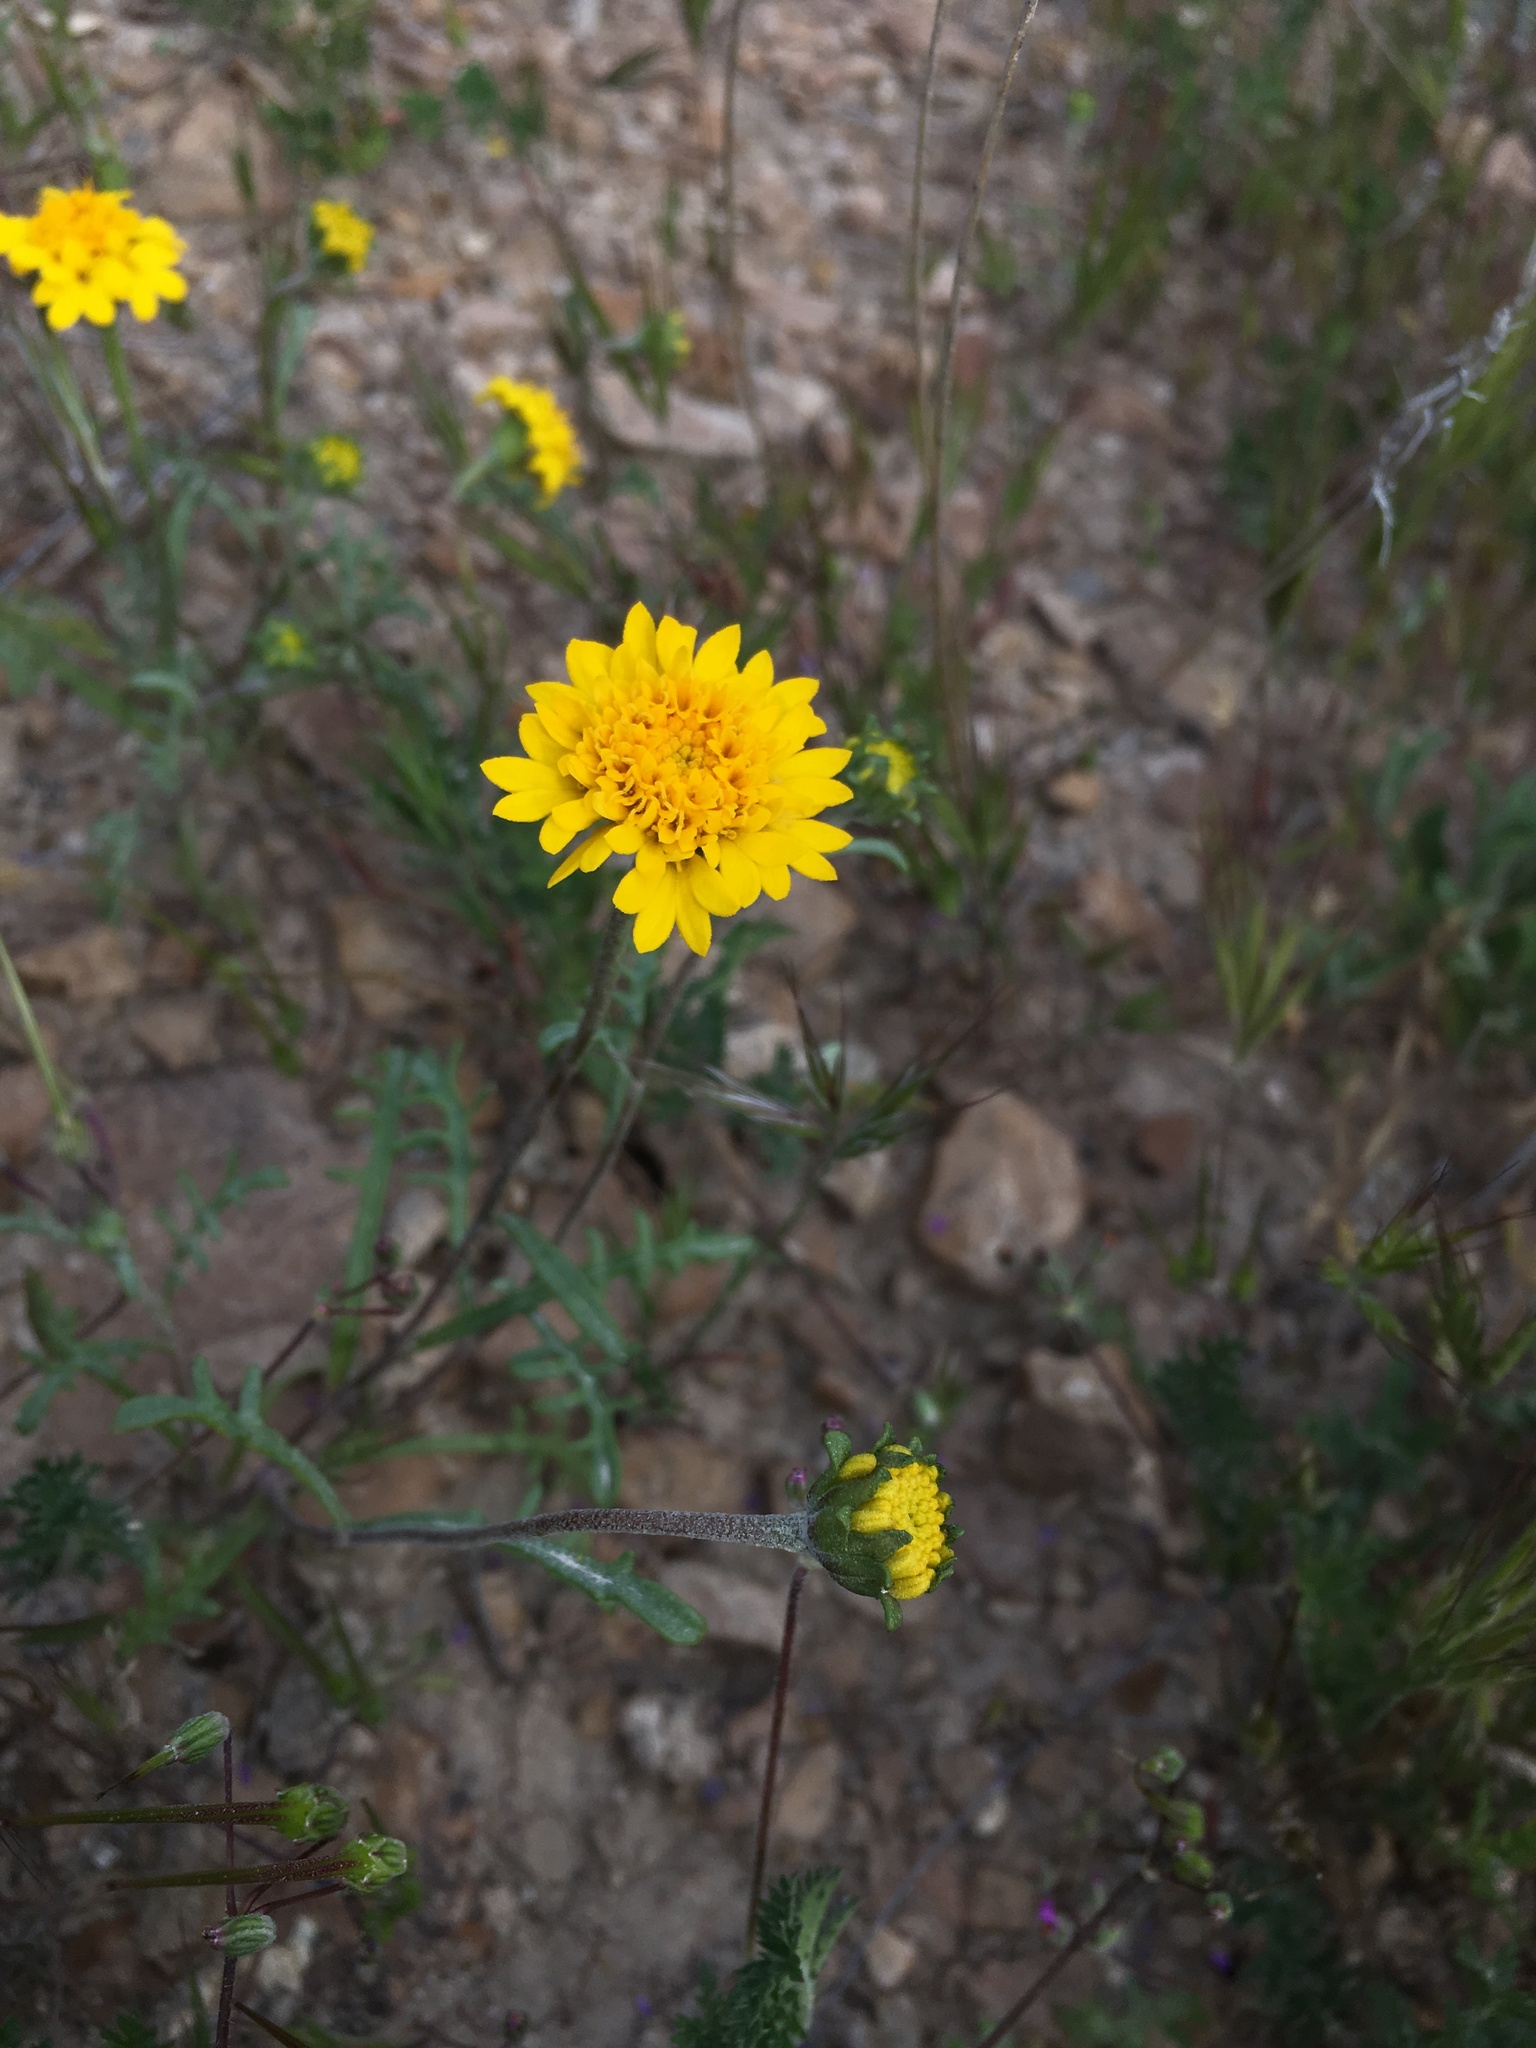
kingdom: Plantae
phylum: Tracheophyta
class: Magnoliopsida
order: Asterales
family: Asteraceae
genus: Chaenactis
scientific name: Chaenactis glabriuscula
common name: Yellow pincushion
